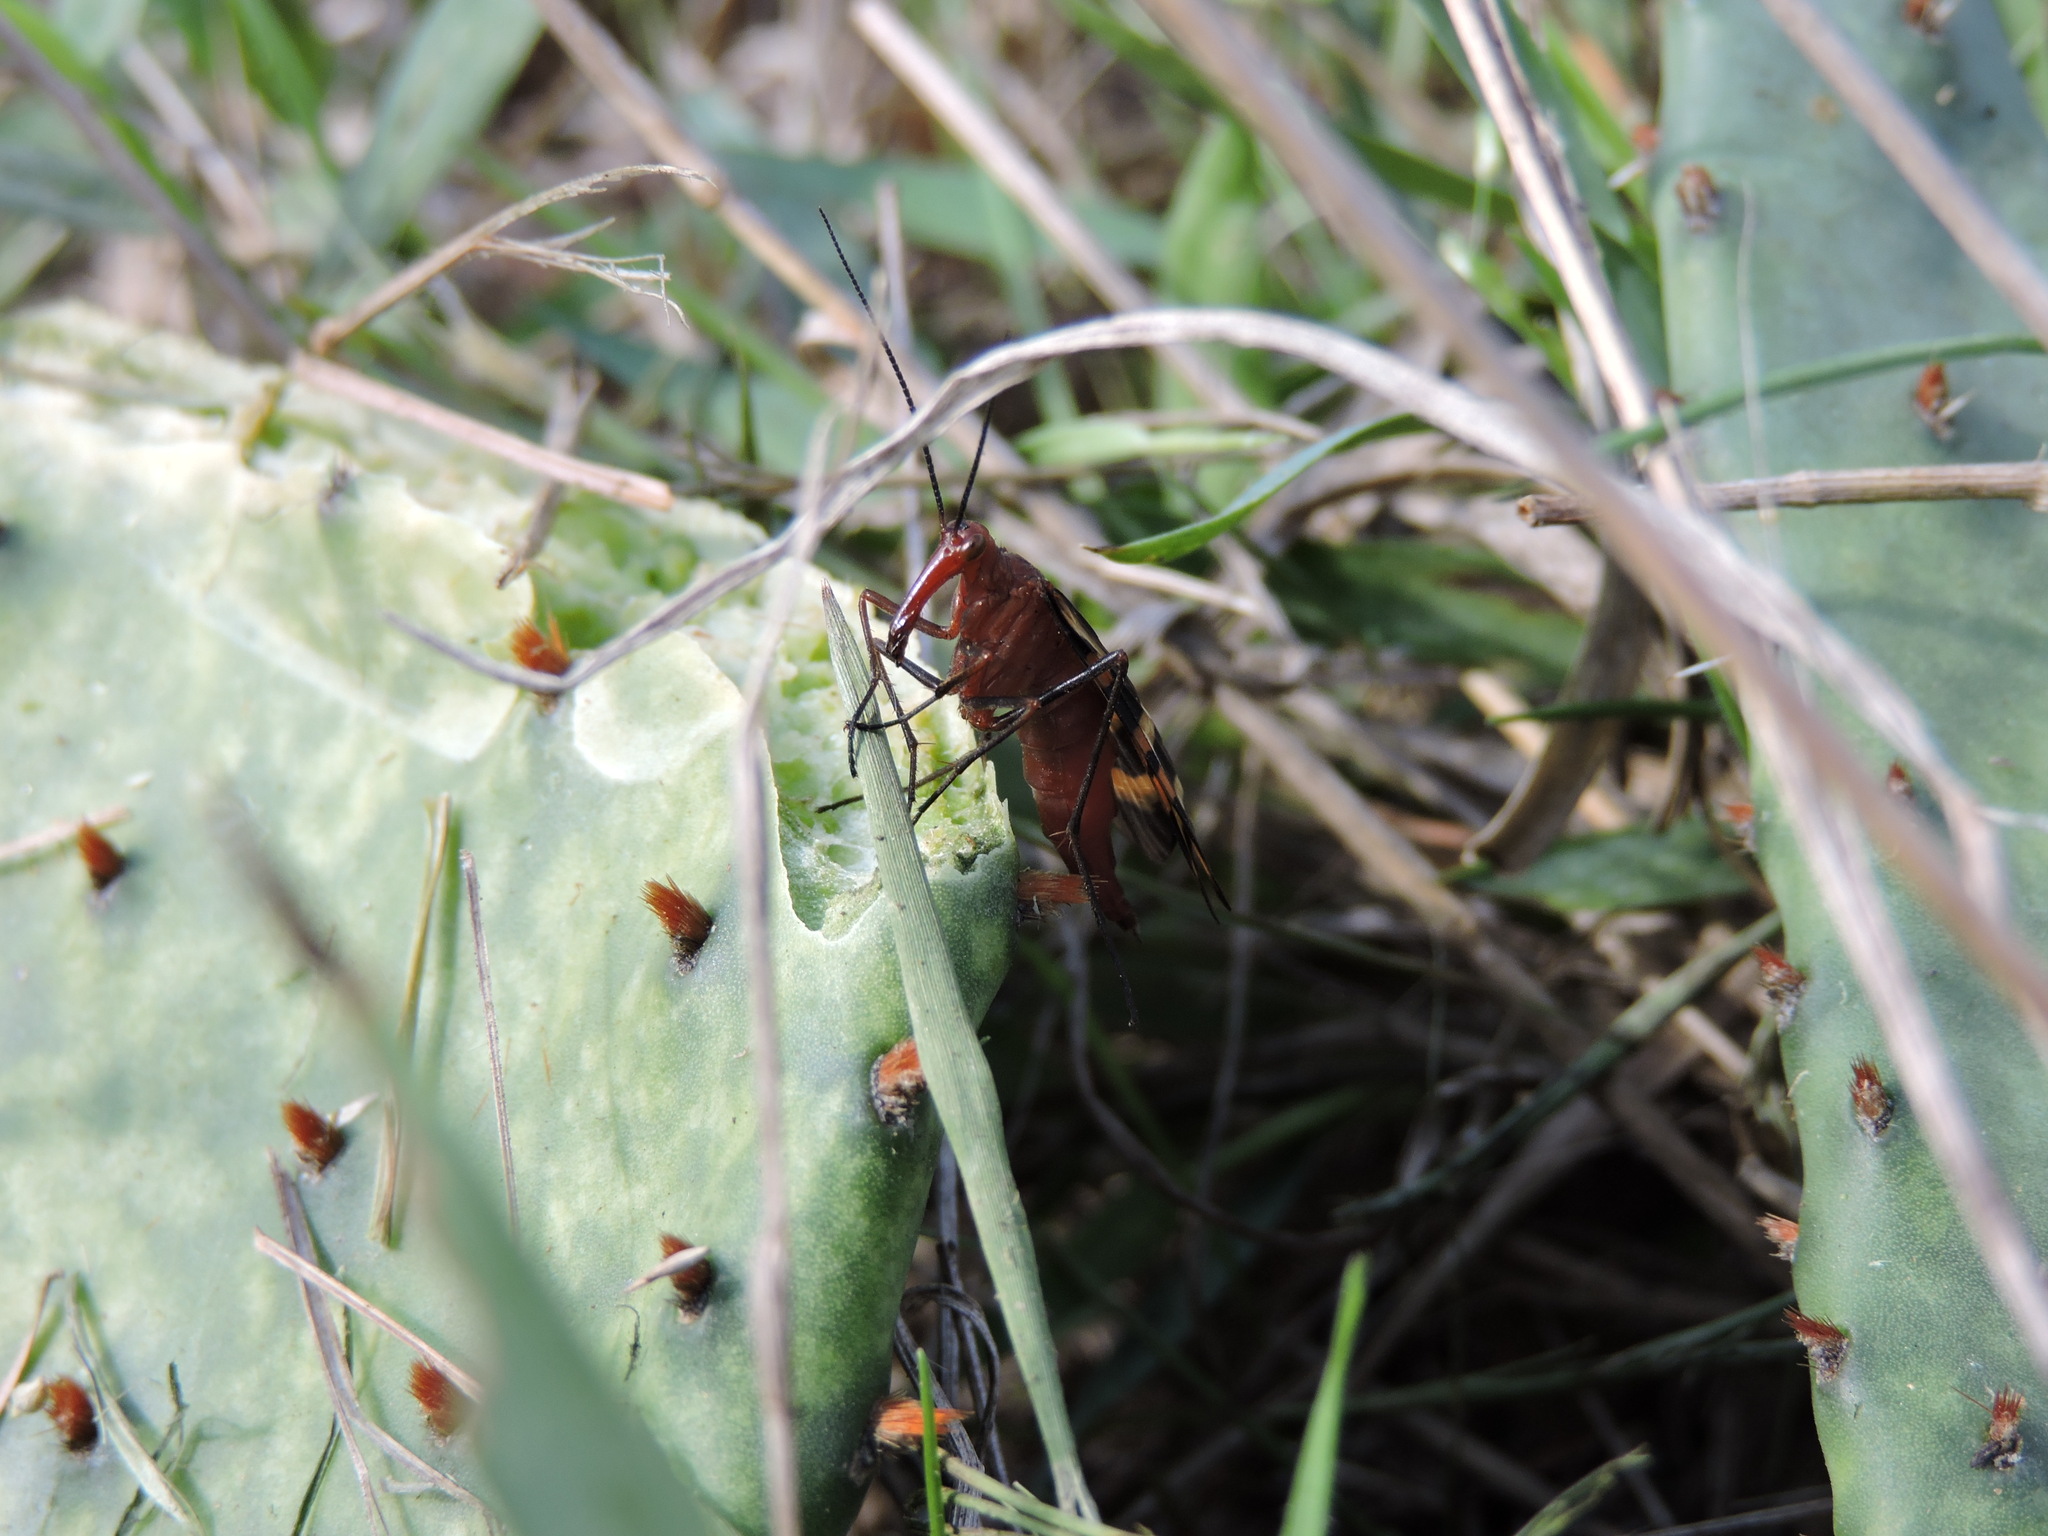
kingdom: Animalia
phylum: Arthropoda
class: Insecta
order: Mecoptera
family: Panorpidae
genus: Panorpa
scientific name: Panorpa nuptialis
